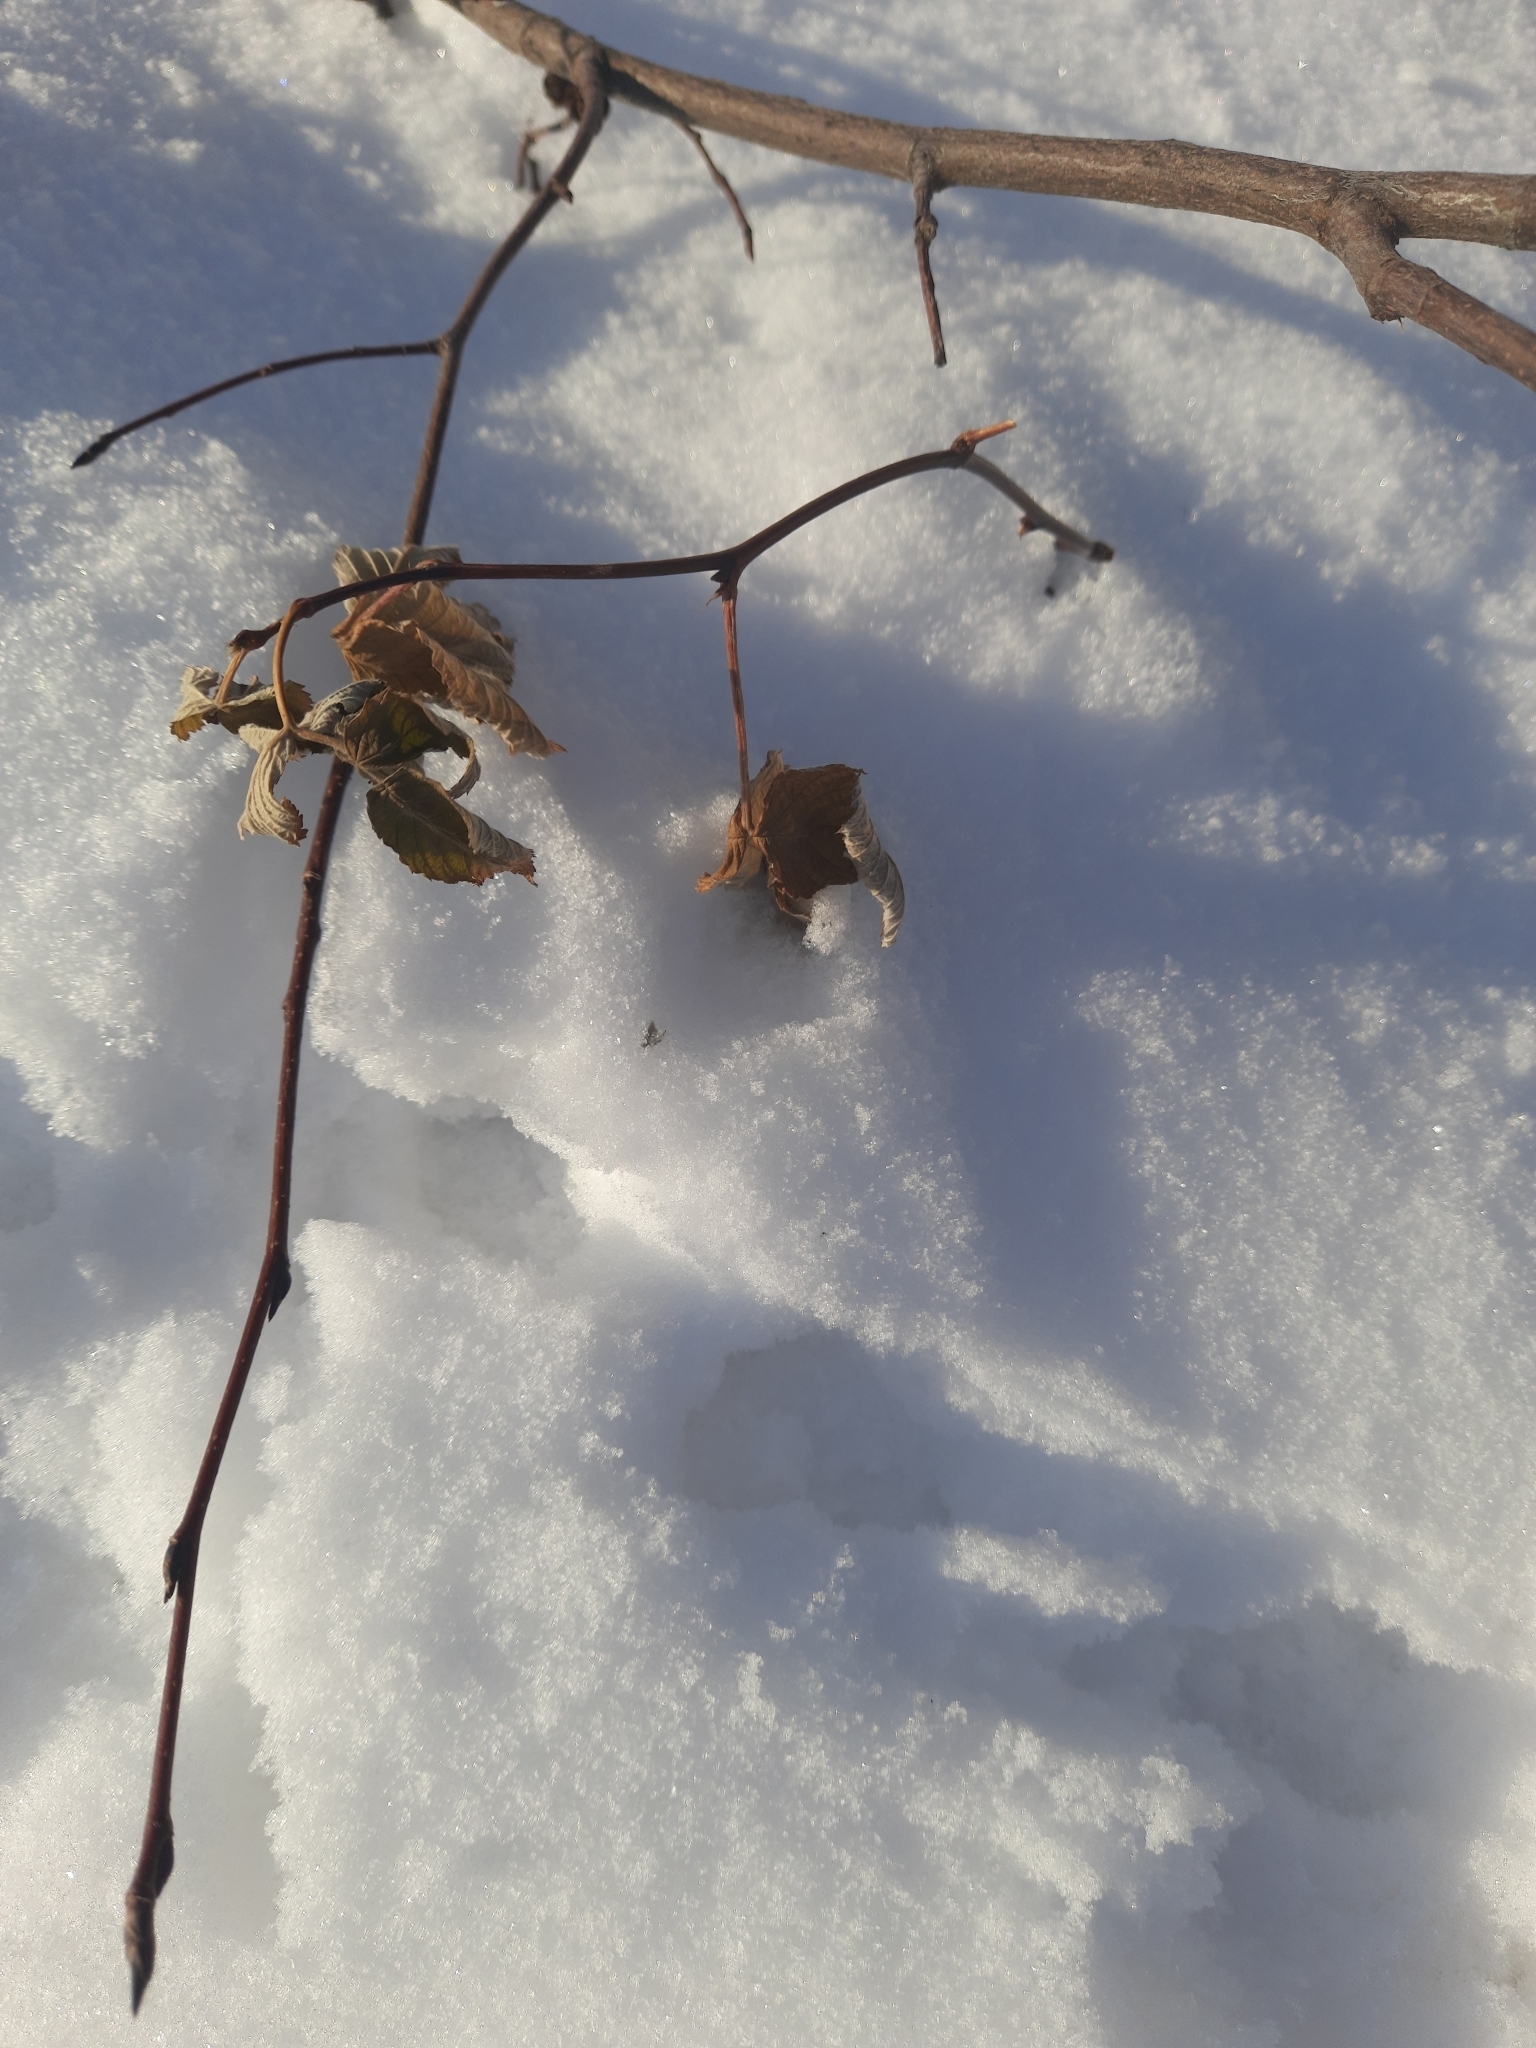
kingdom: Plantae
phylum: Tracheophyta
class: Magnoliopsida
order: Rosales
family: Rosaceae
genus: Rubus
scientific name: Rubus idaeus
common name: Raspberry
